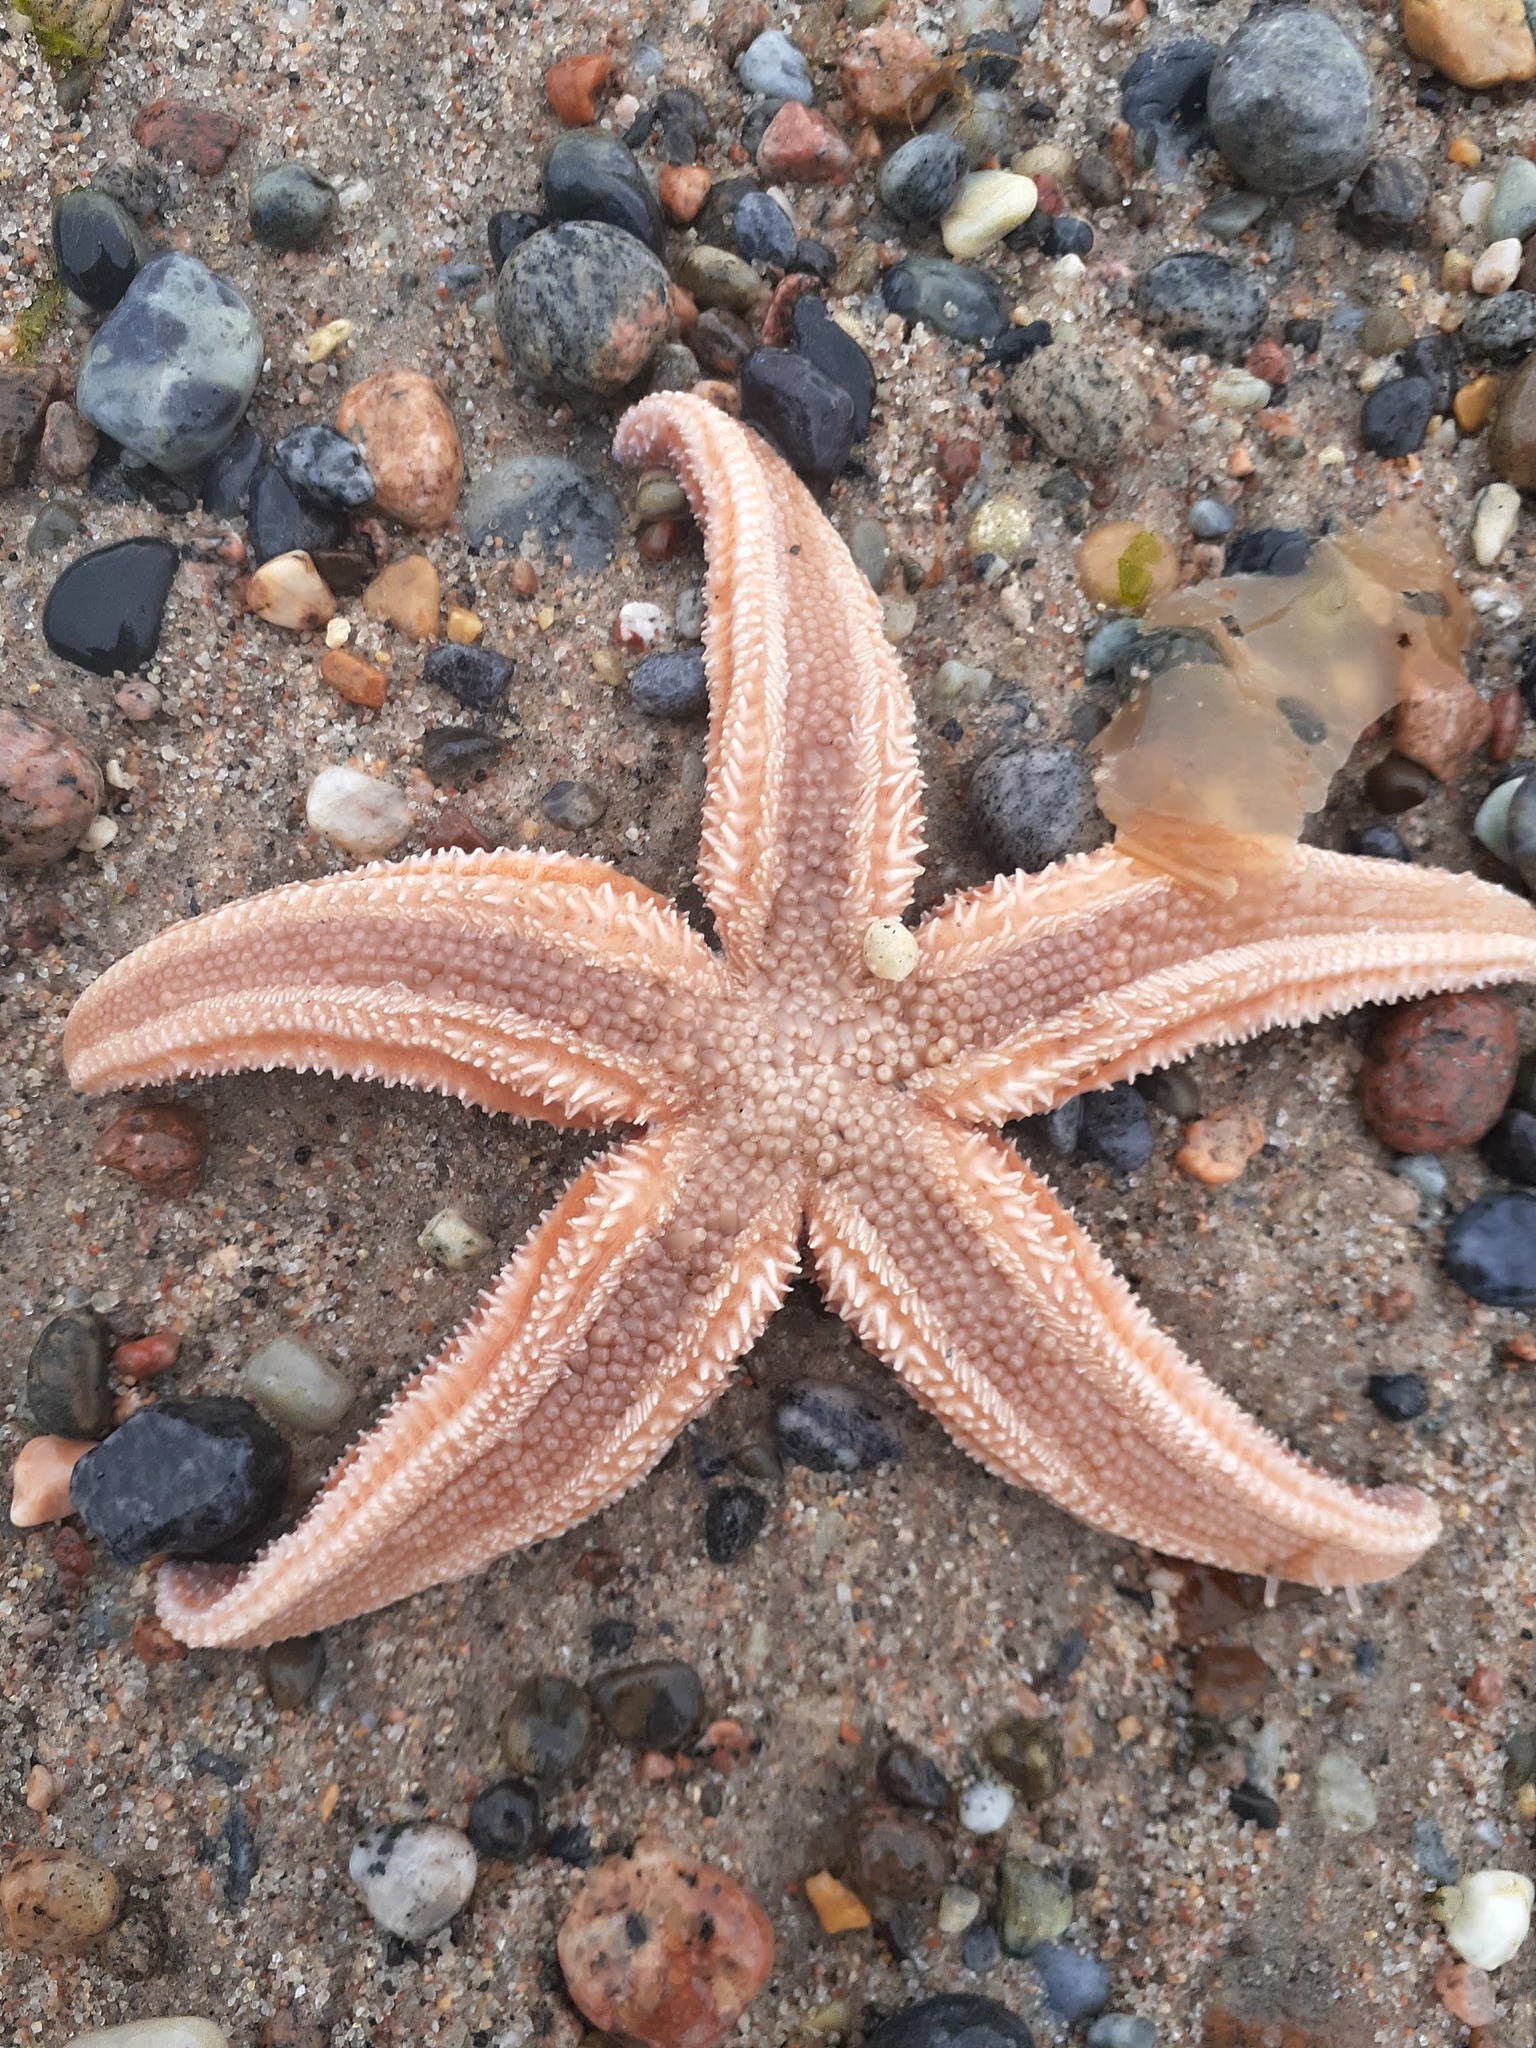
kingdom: Animalia
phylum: Echinodermata
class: Asteroidea
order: Forcipulatida
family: Asteriidae
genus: Asterias
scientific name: Asterias rubens
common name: Common starfish
